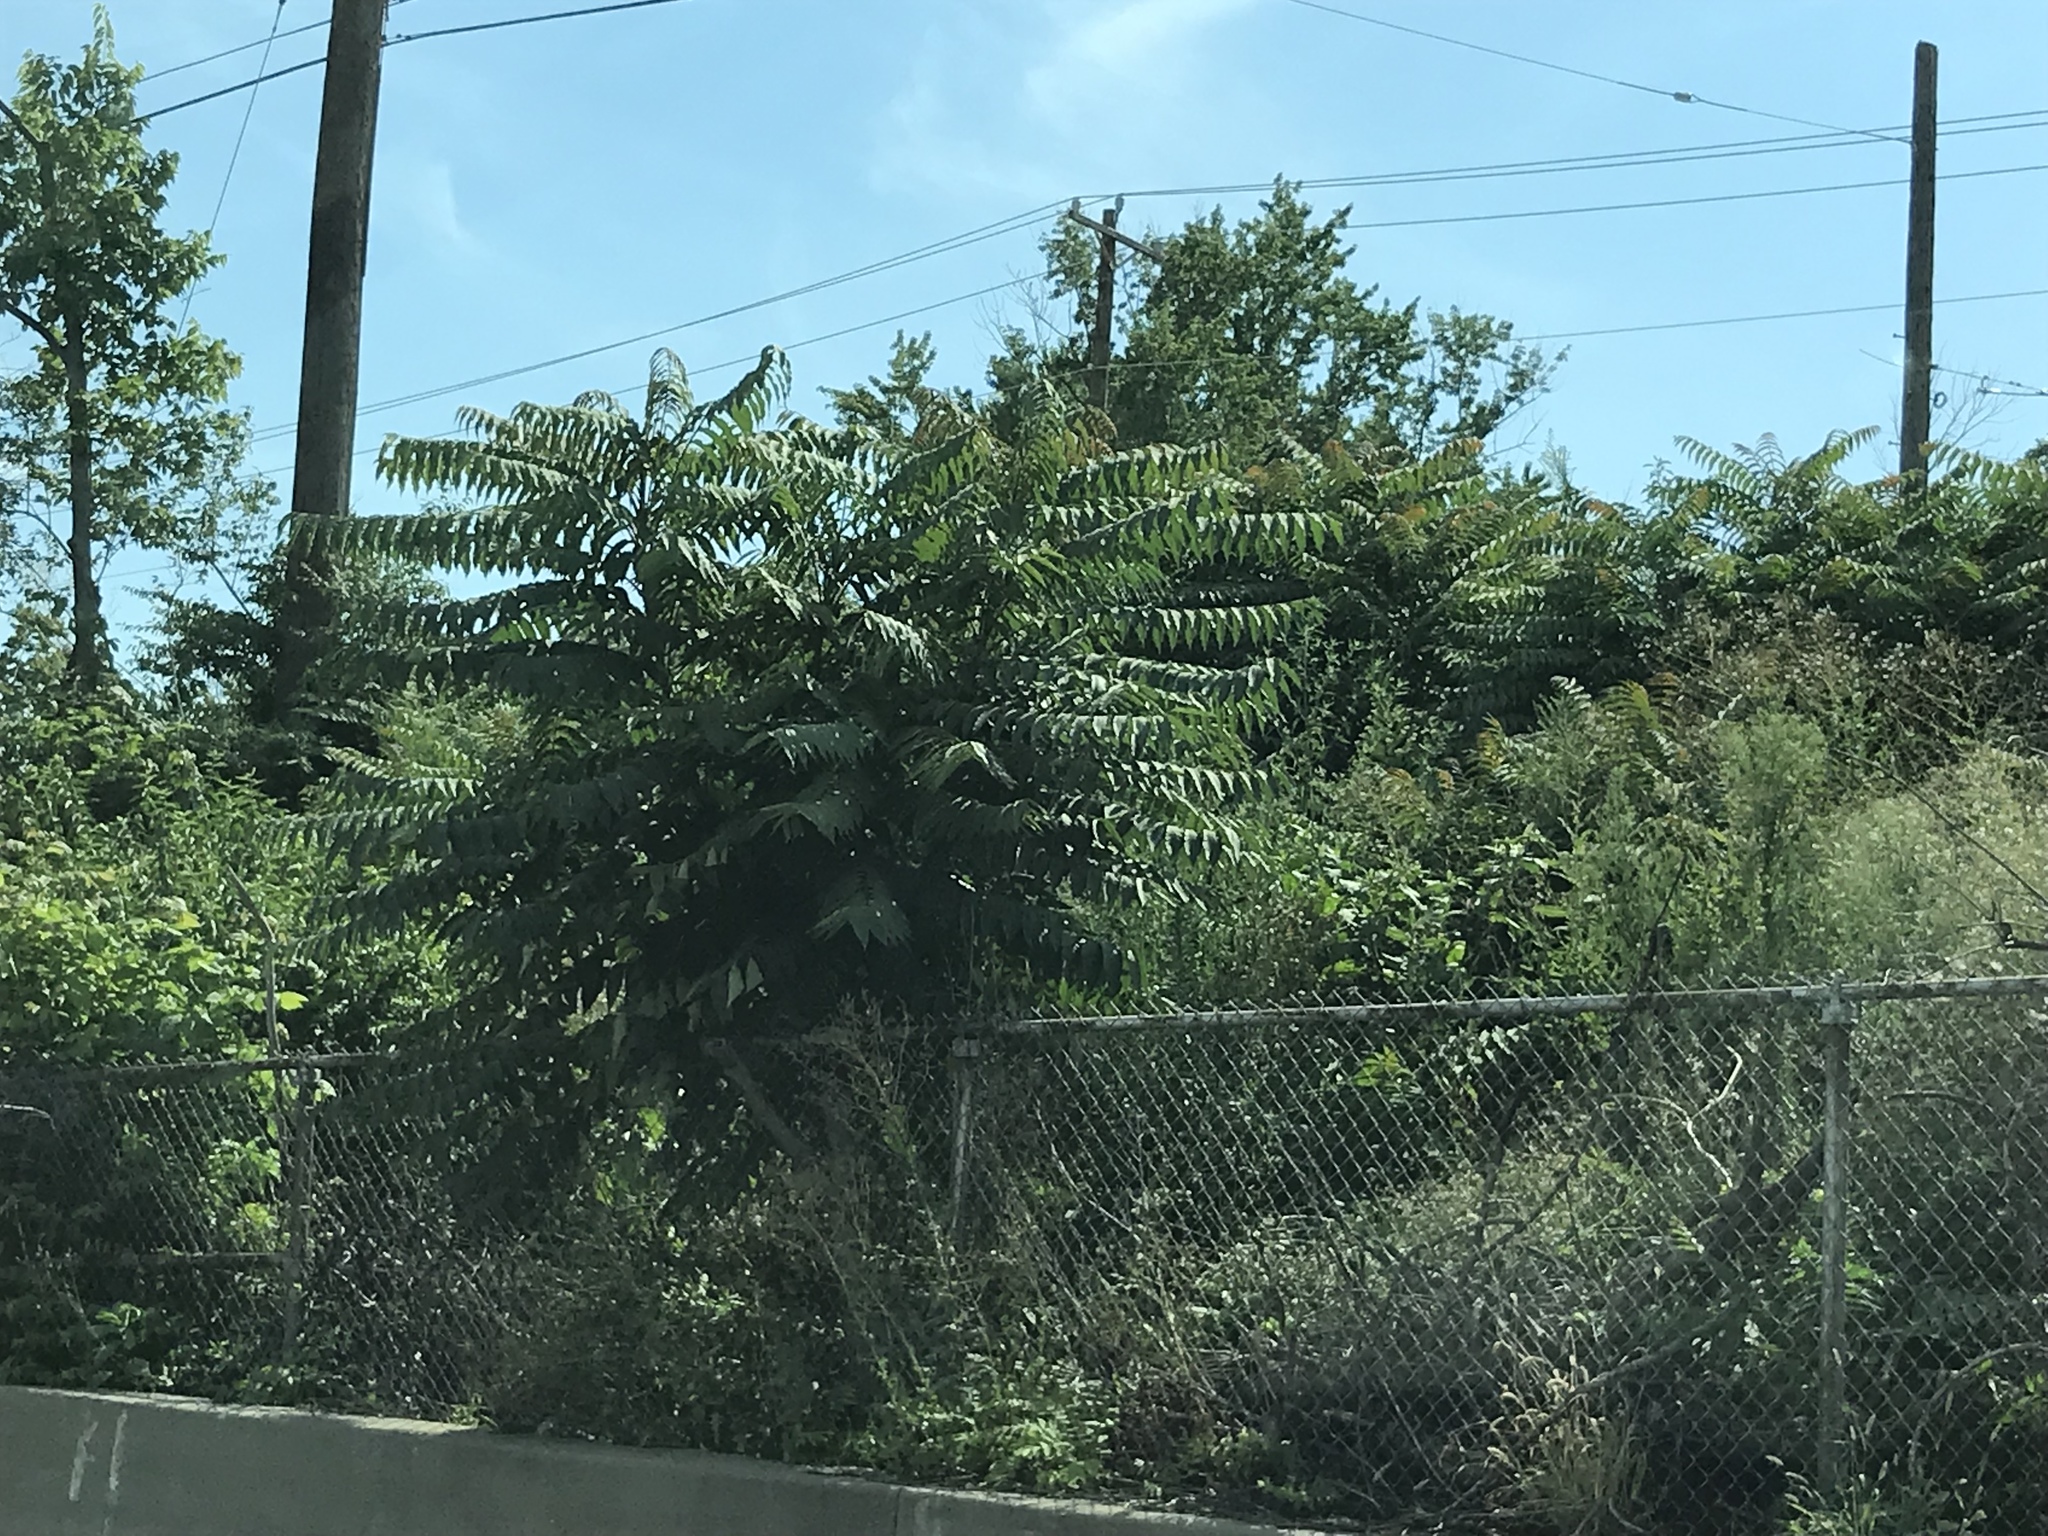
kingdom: Plantae
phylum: Tracheophyta
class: Magnoliopsida
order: Sapindales
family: Simaroubaceae
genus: Ailanthus
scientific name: Ailanthus altissima
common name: Tree-of-heaven
